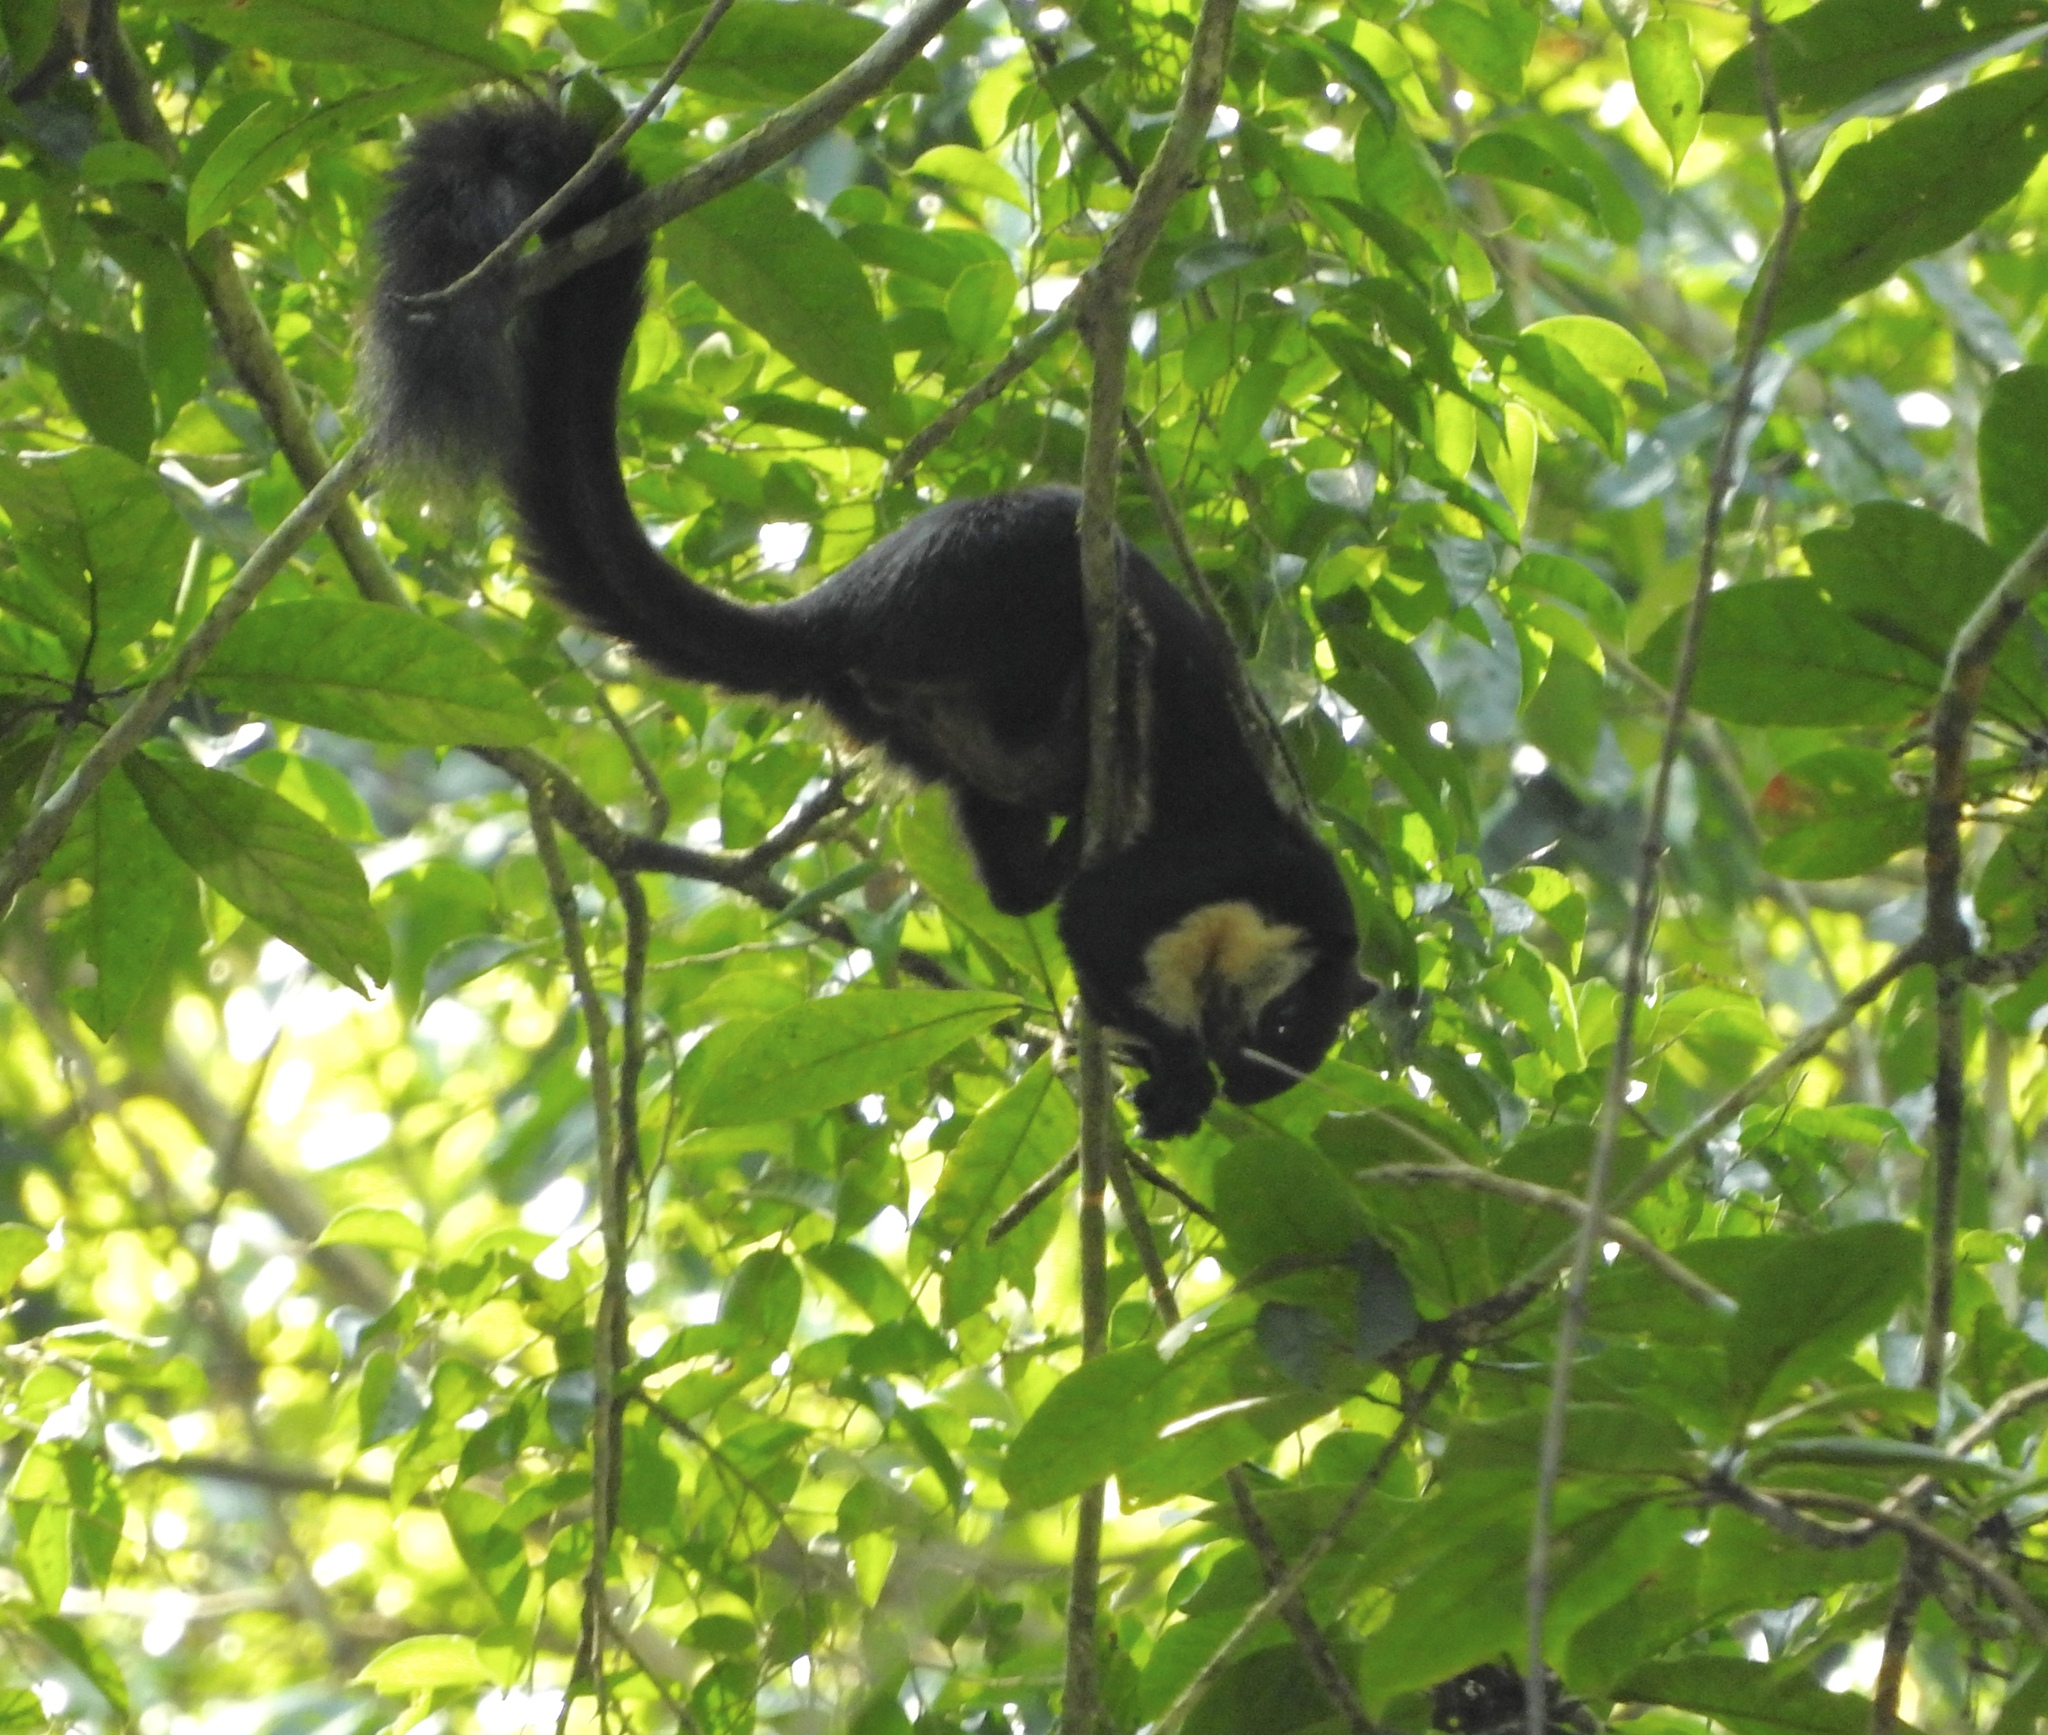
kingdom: Animalia
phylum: Chordata
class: Mammalia
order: Rodentia
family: Sciuridae
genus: Ratufa
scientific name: Ratufa bicolor
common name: Black giant squirrel
